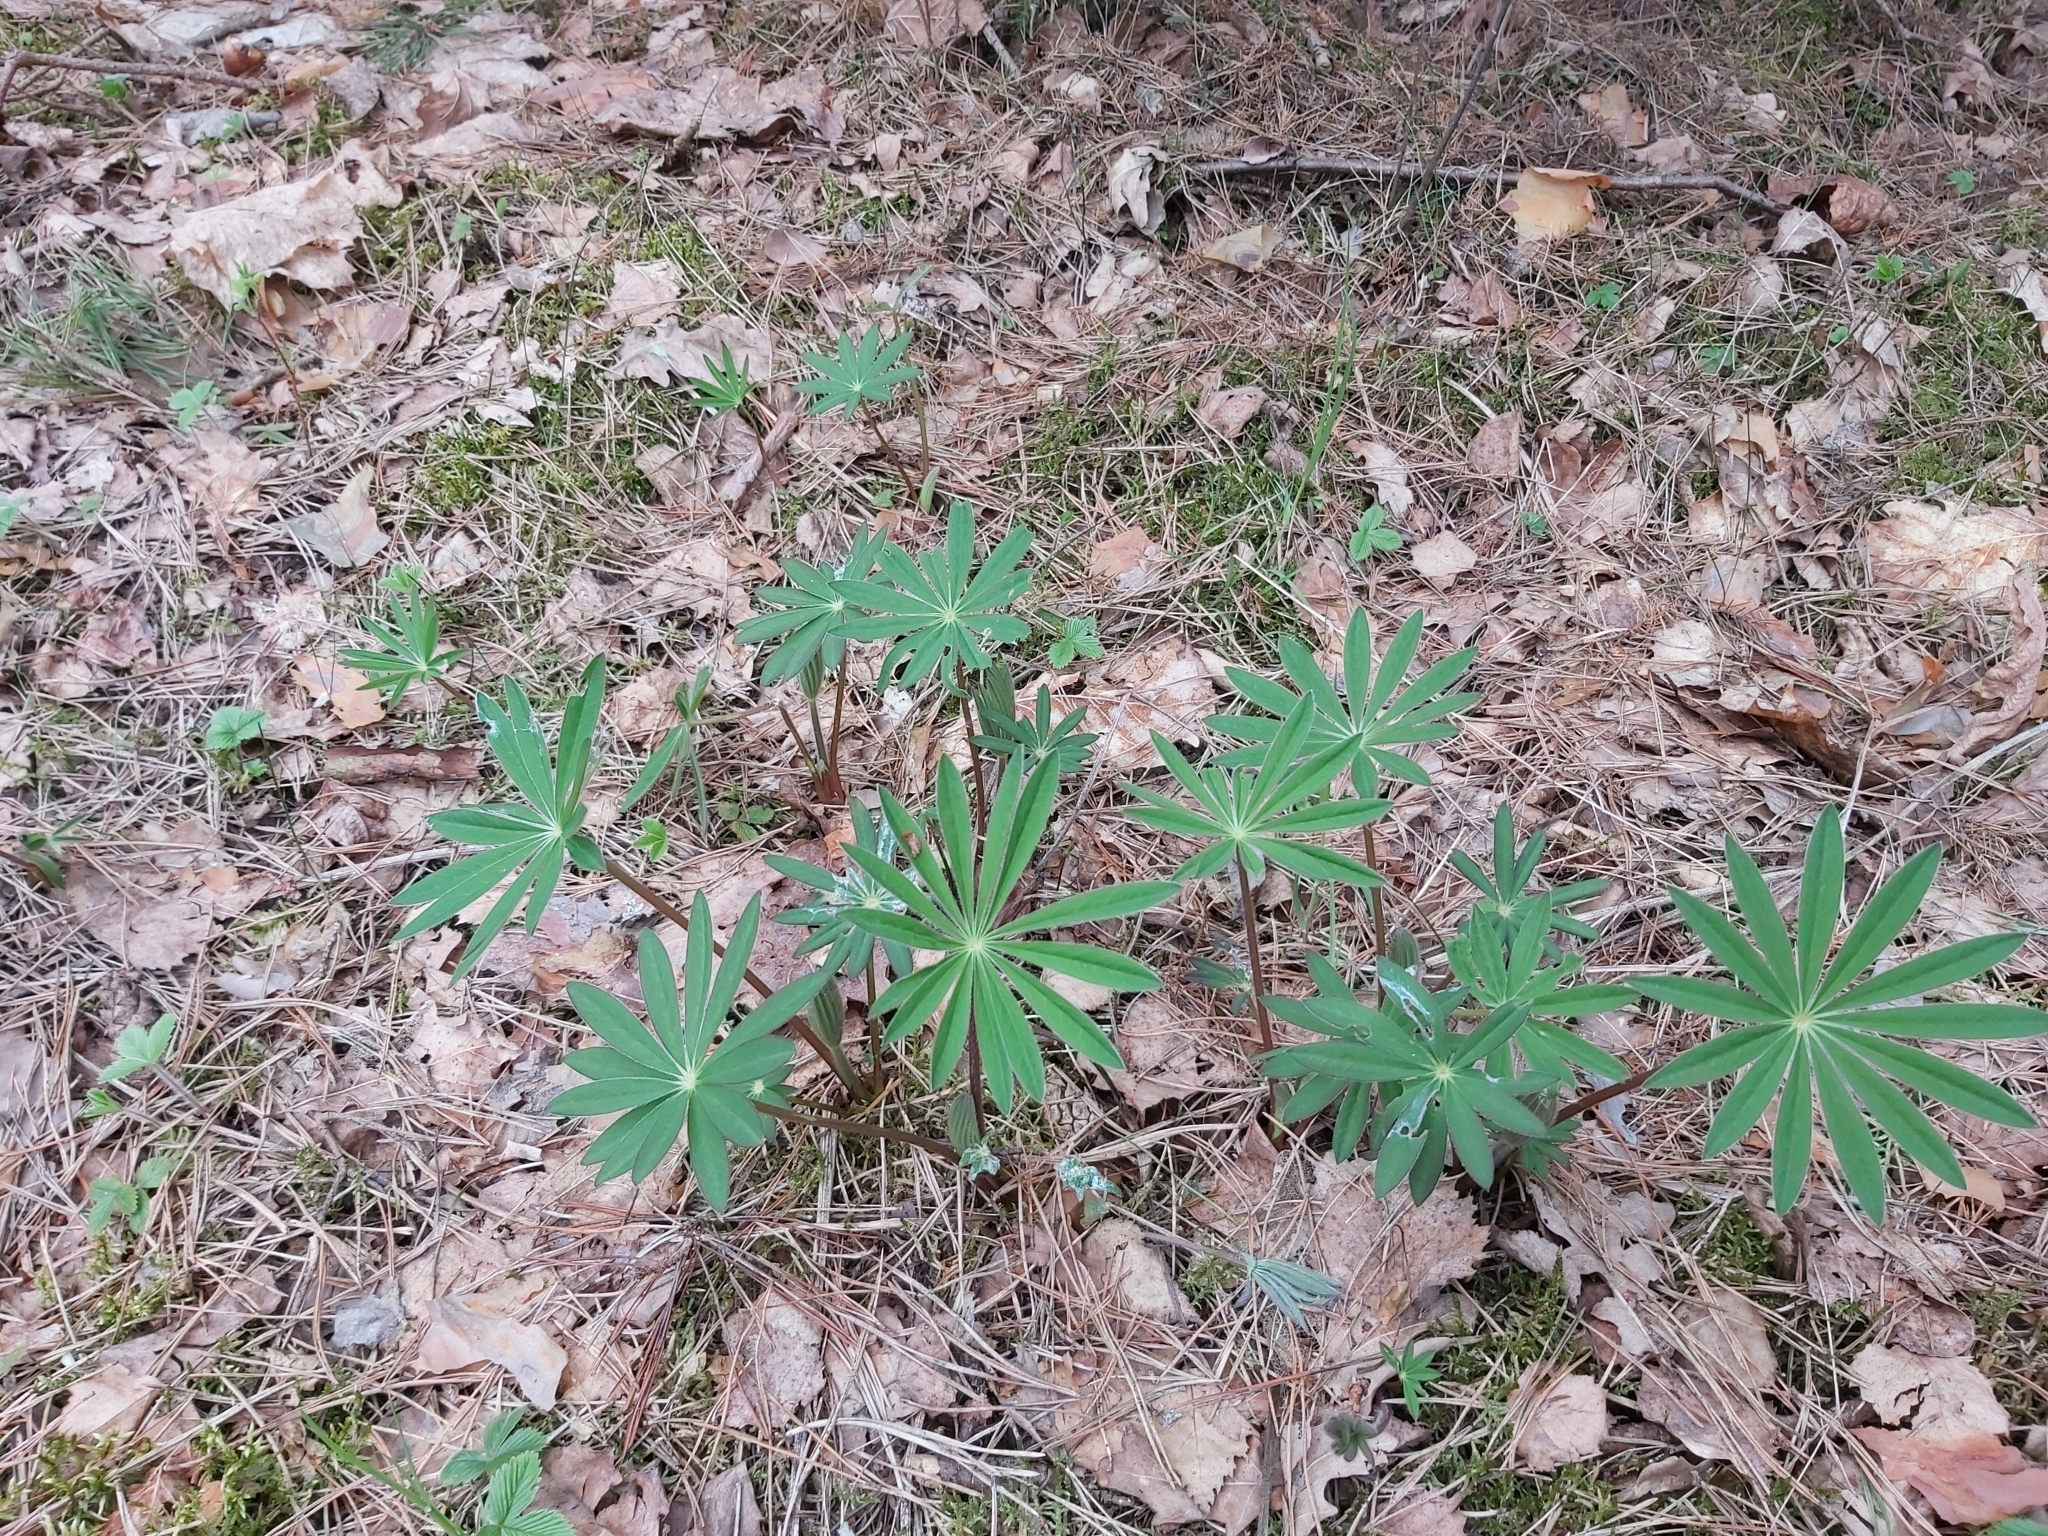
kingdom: Plantae
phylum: Tracheophyta
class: Magnoliopsida
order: Fabales
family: Fabaceae
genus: Lupinus
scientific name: Lupinus polyphyllus
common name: Garden lupin
